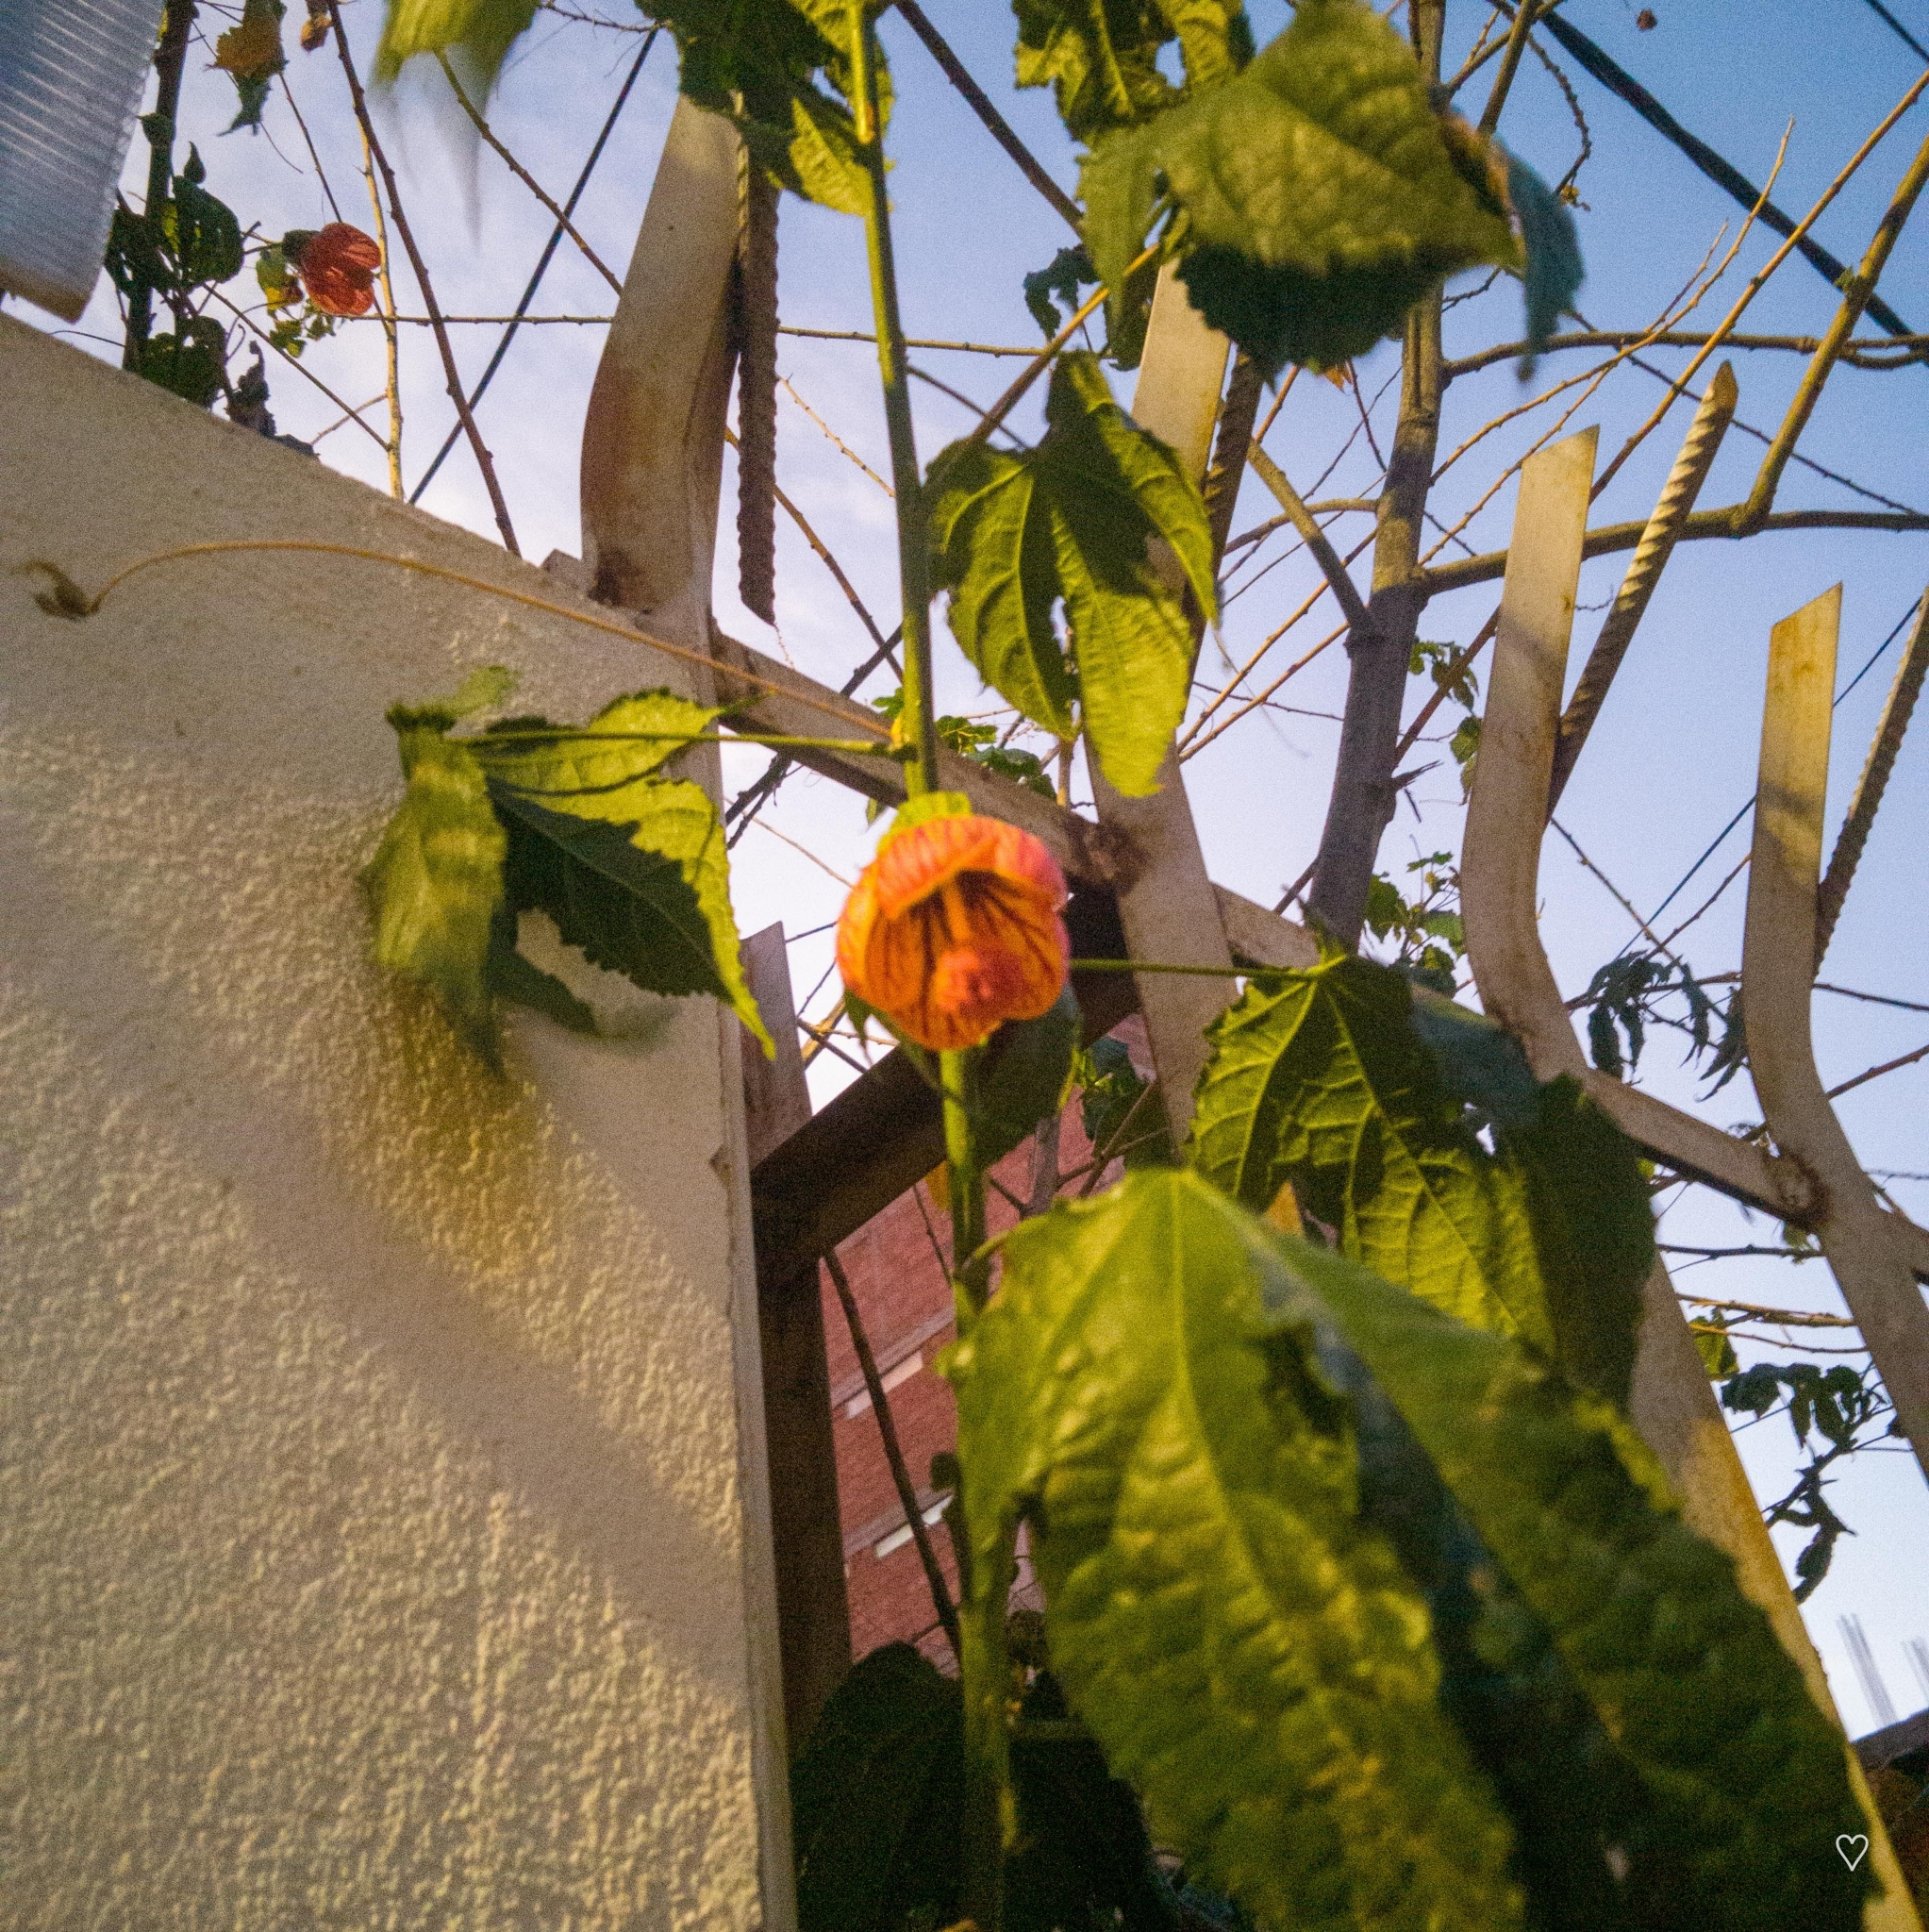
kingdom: Plantae
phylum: Tracheophyta
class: Magnoliopsida
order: Malvales
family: Malvaceae
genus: Callianthe
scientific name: Callianthe picta
